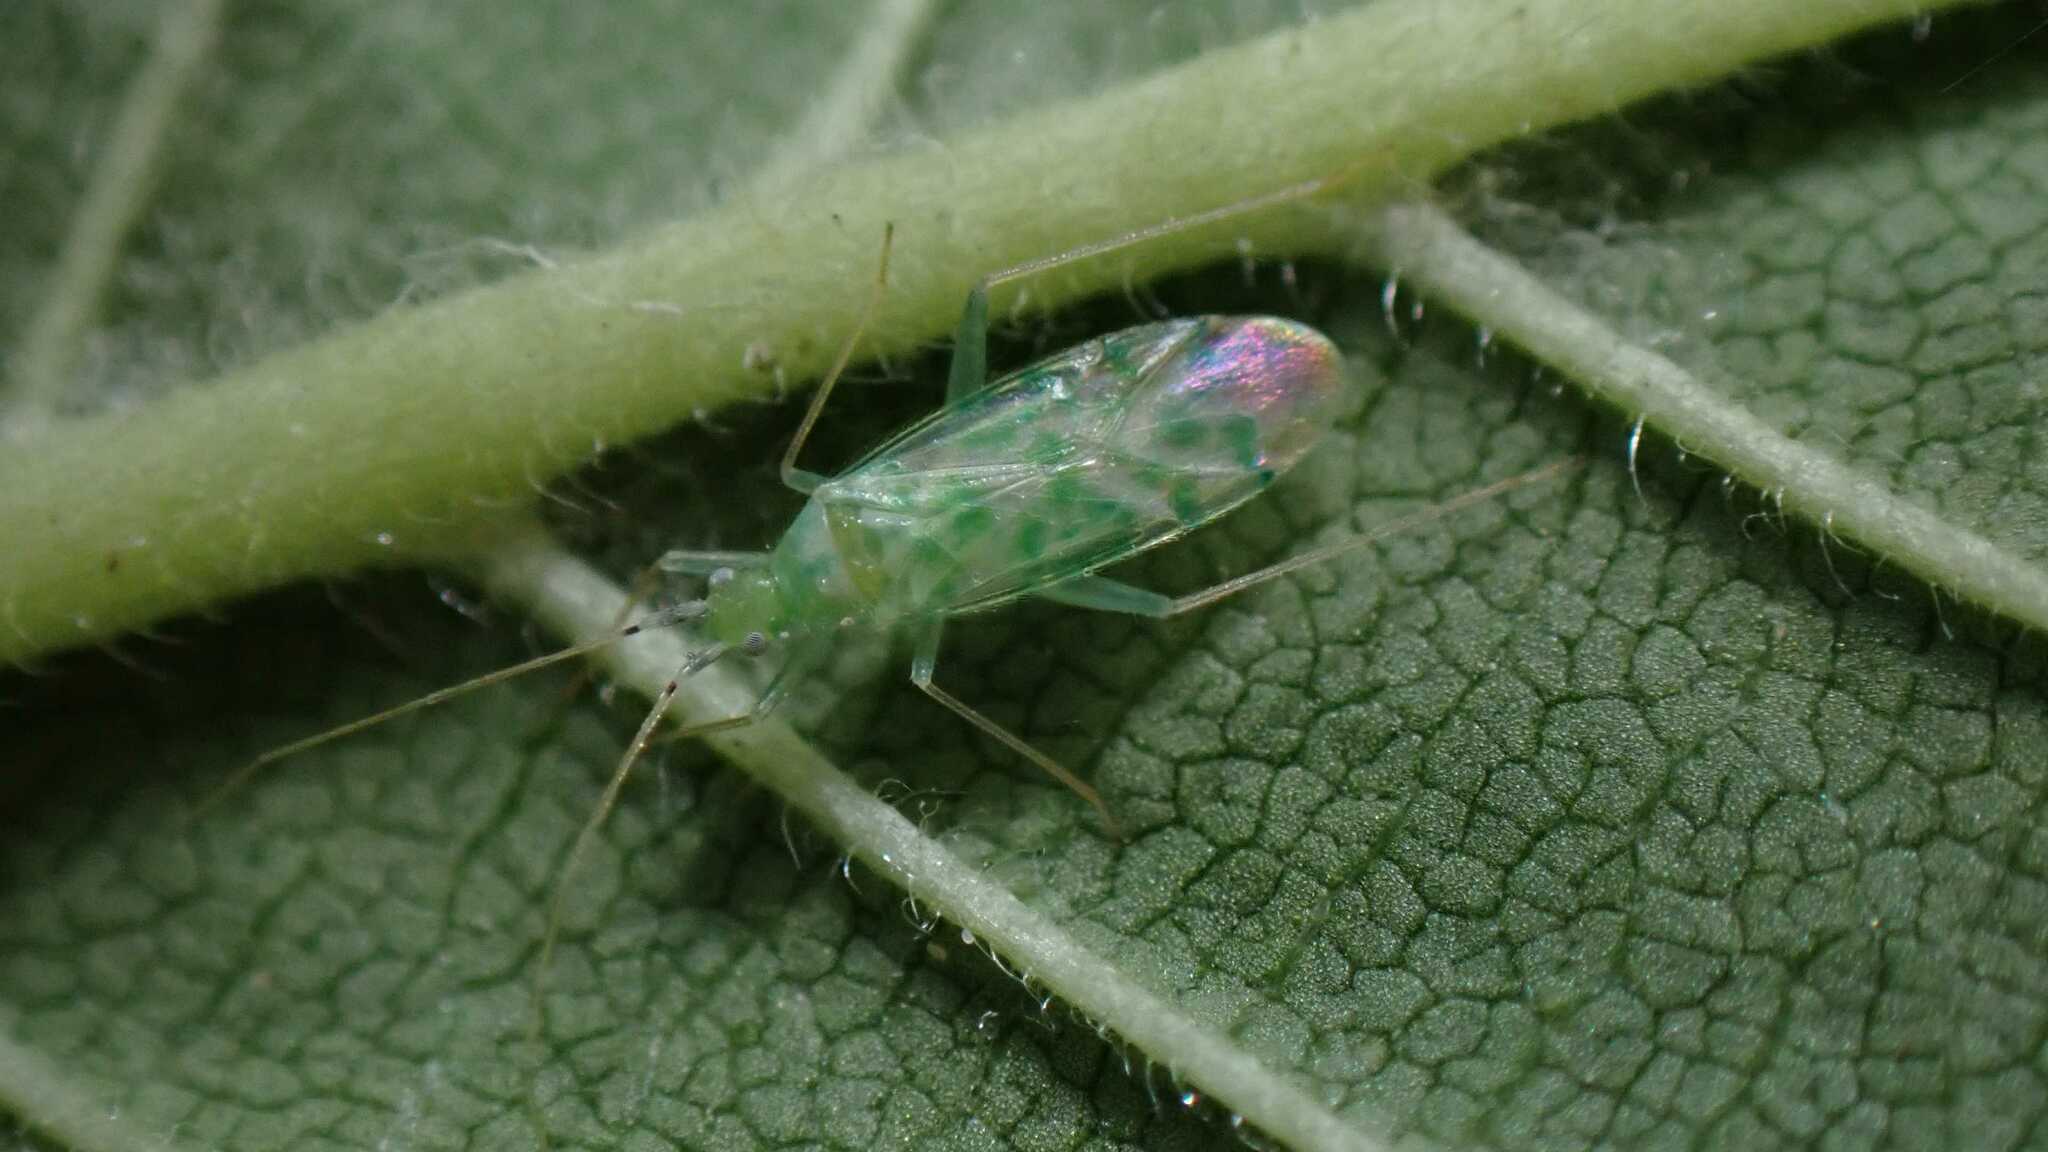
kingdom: Animalia
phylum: Arthropoda
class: Insecta
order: Hemiptera
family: Miridae
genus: Malacocoris
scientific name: Malacocoris chlorizans
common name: Plant bug
